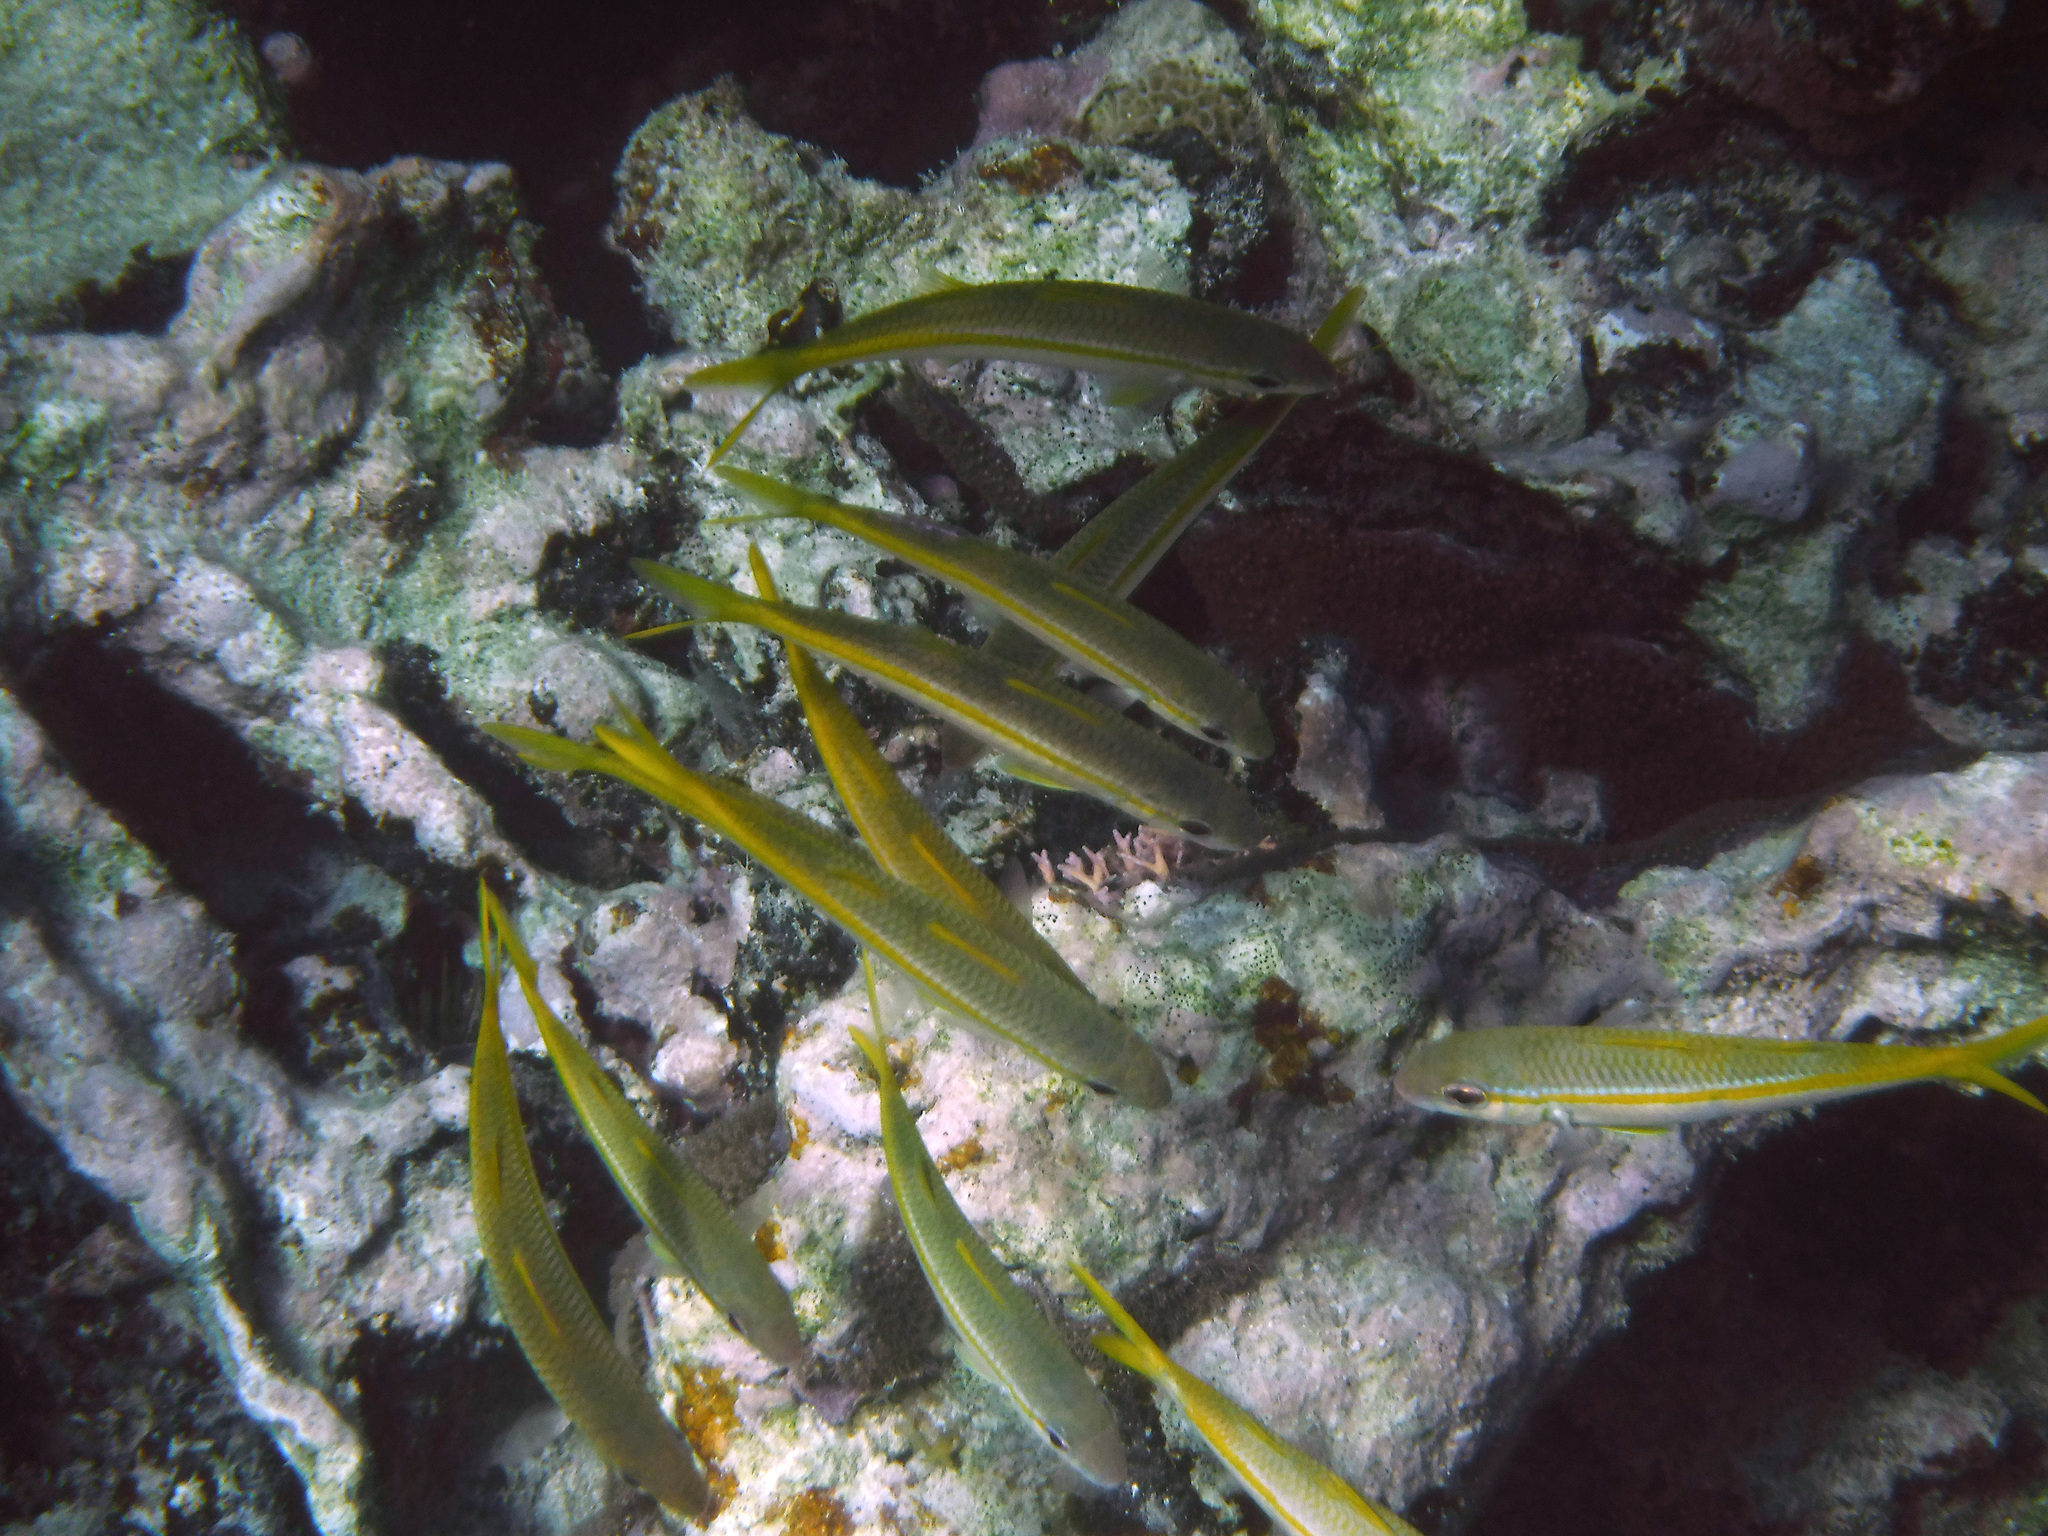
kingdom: Animalia
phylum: Chordata
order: Perciformes
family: Mullidae
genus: Mulloidichthys
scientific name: Mulloidichthys martinicus
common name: Yellow goatfish
